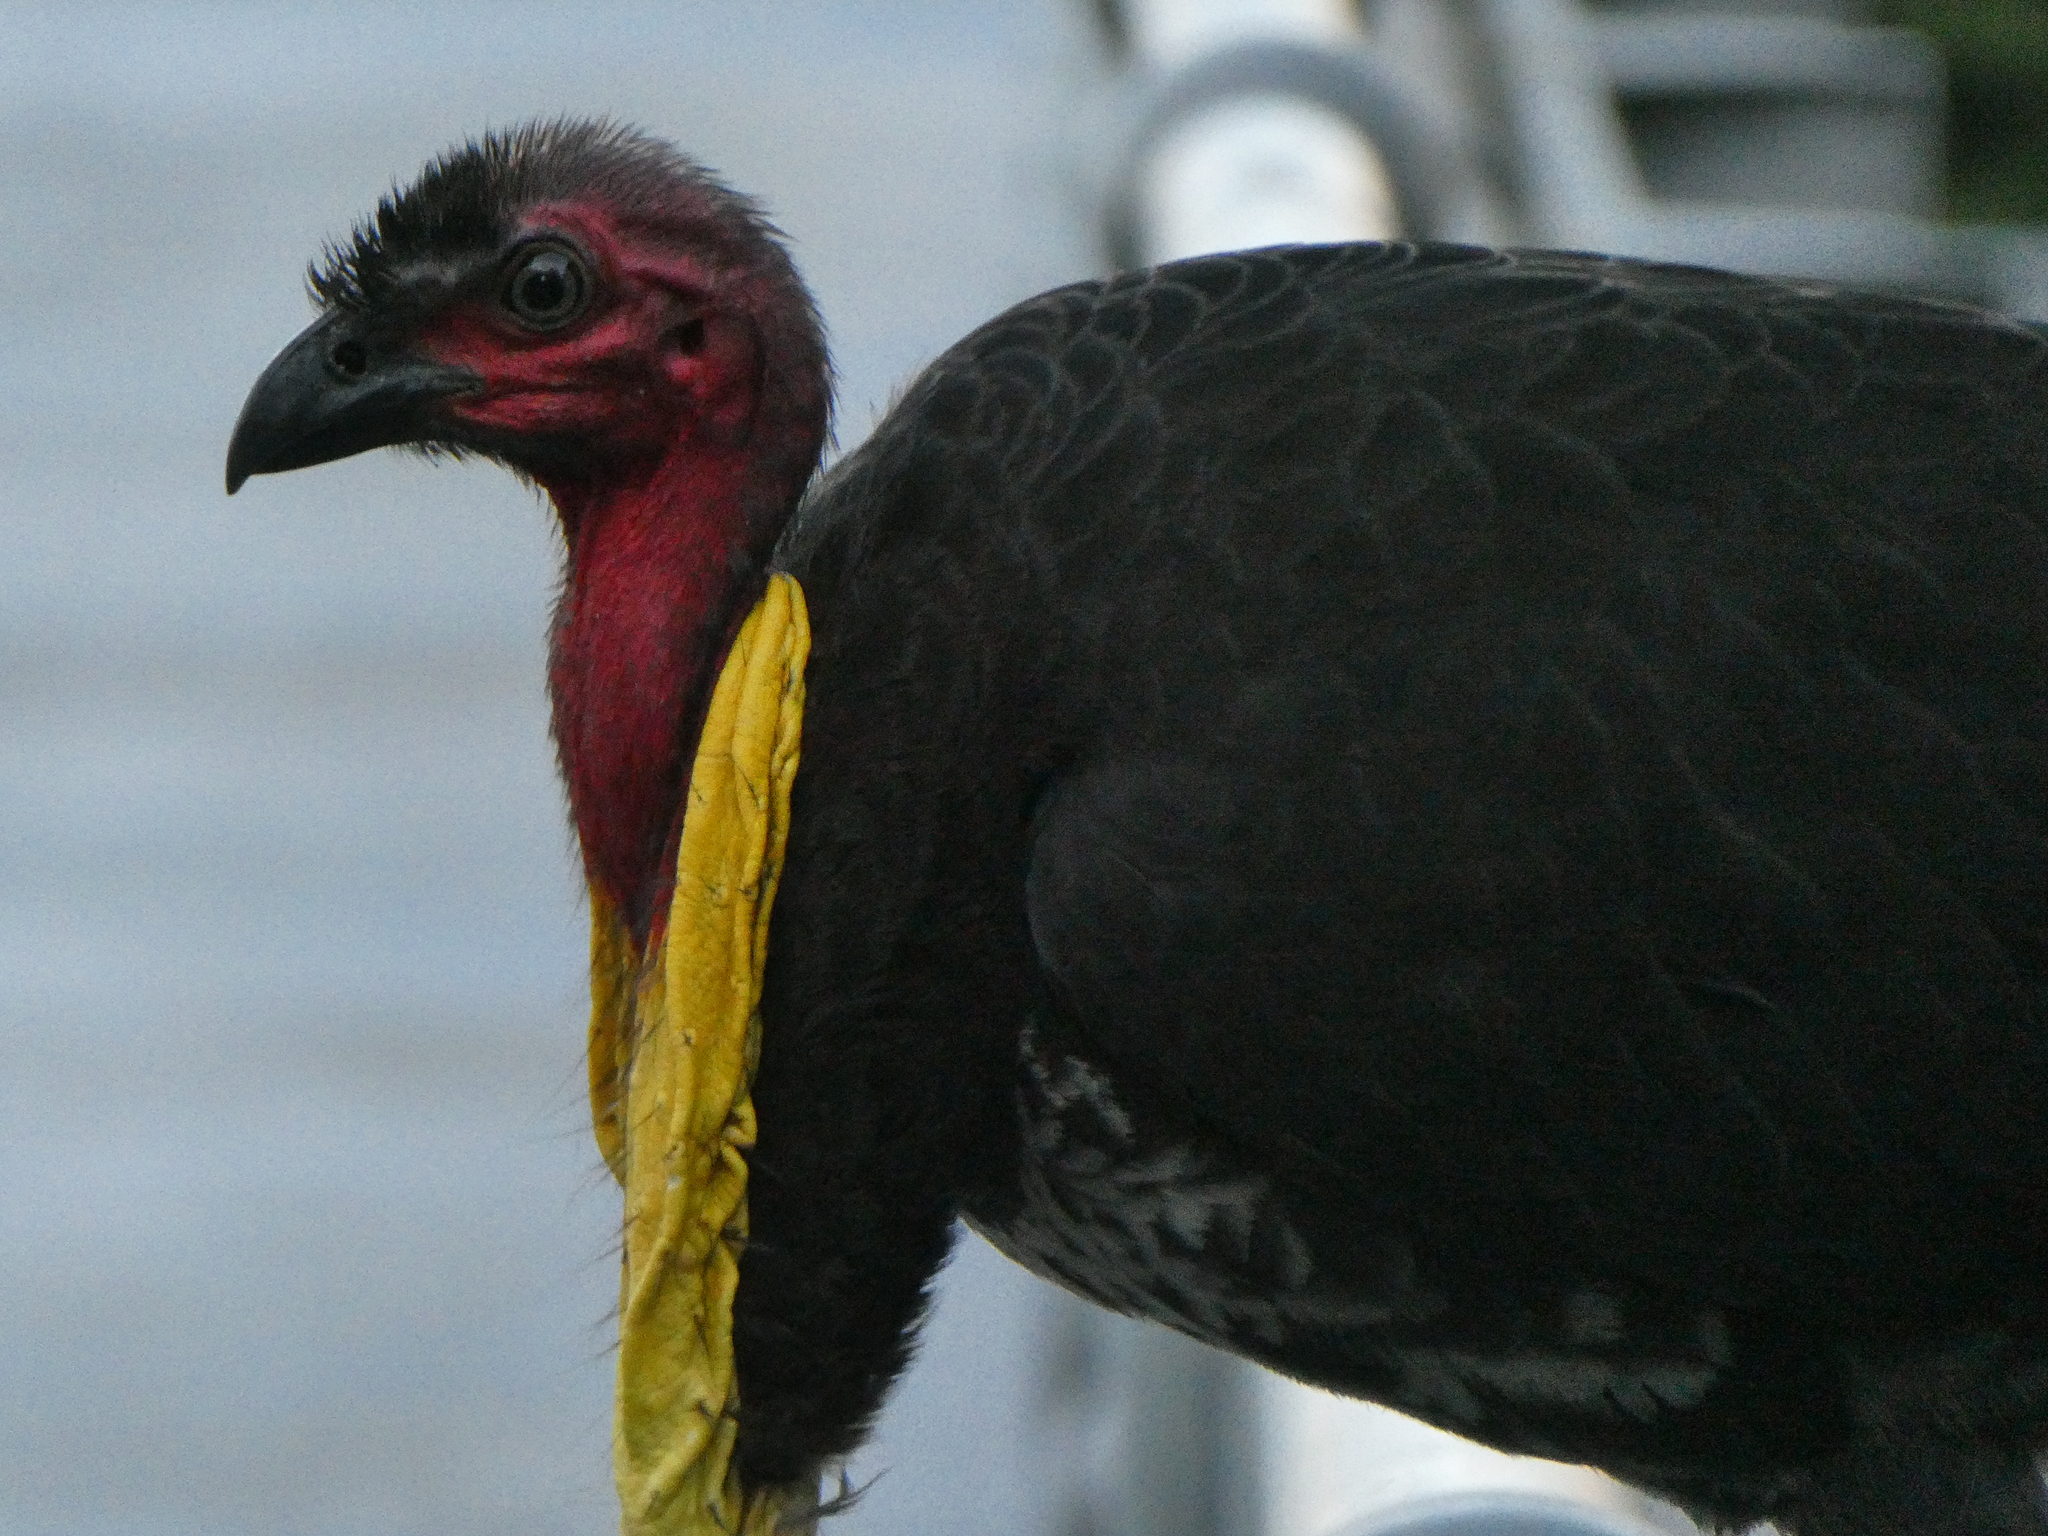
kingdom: Animalia
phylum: Chordata
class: Aves
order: Galliformes
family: Megapodiidae
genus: Alectura
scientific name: Alectura lathami
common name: Australian brushturkey
